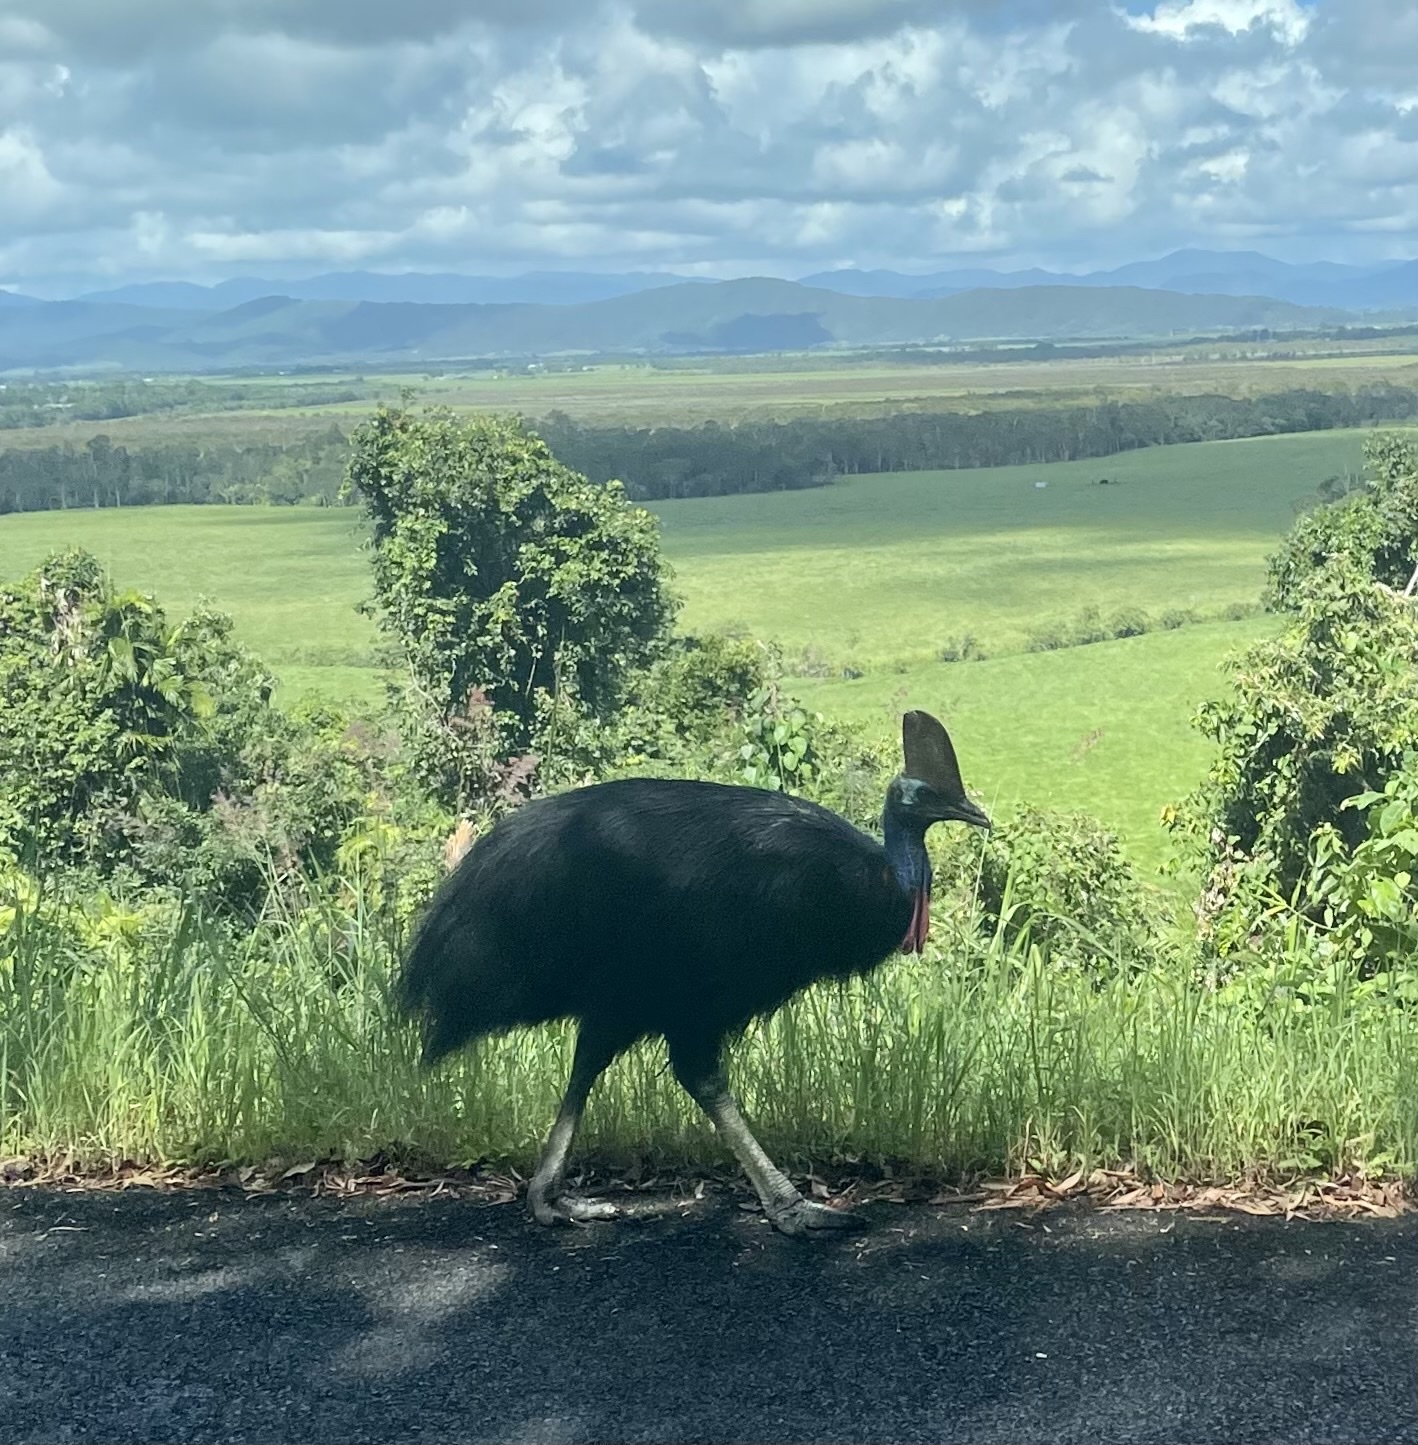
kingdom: Animalia
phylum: Chordata
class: Aves
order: Casuariiformes
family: Casuariidae
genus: Casuarius
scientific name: Casuarius casuarius
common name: Southern cassowary
